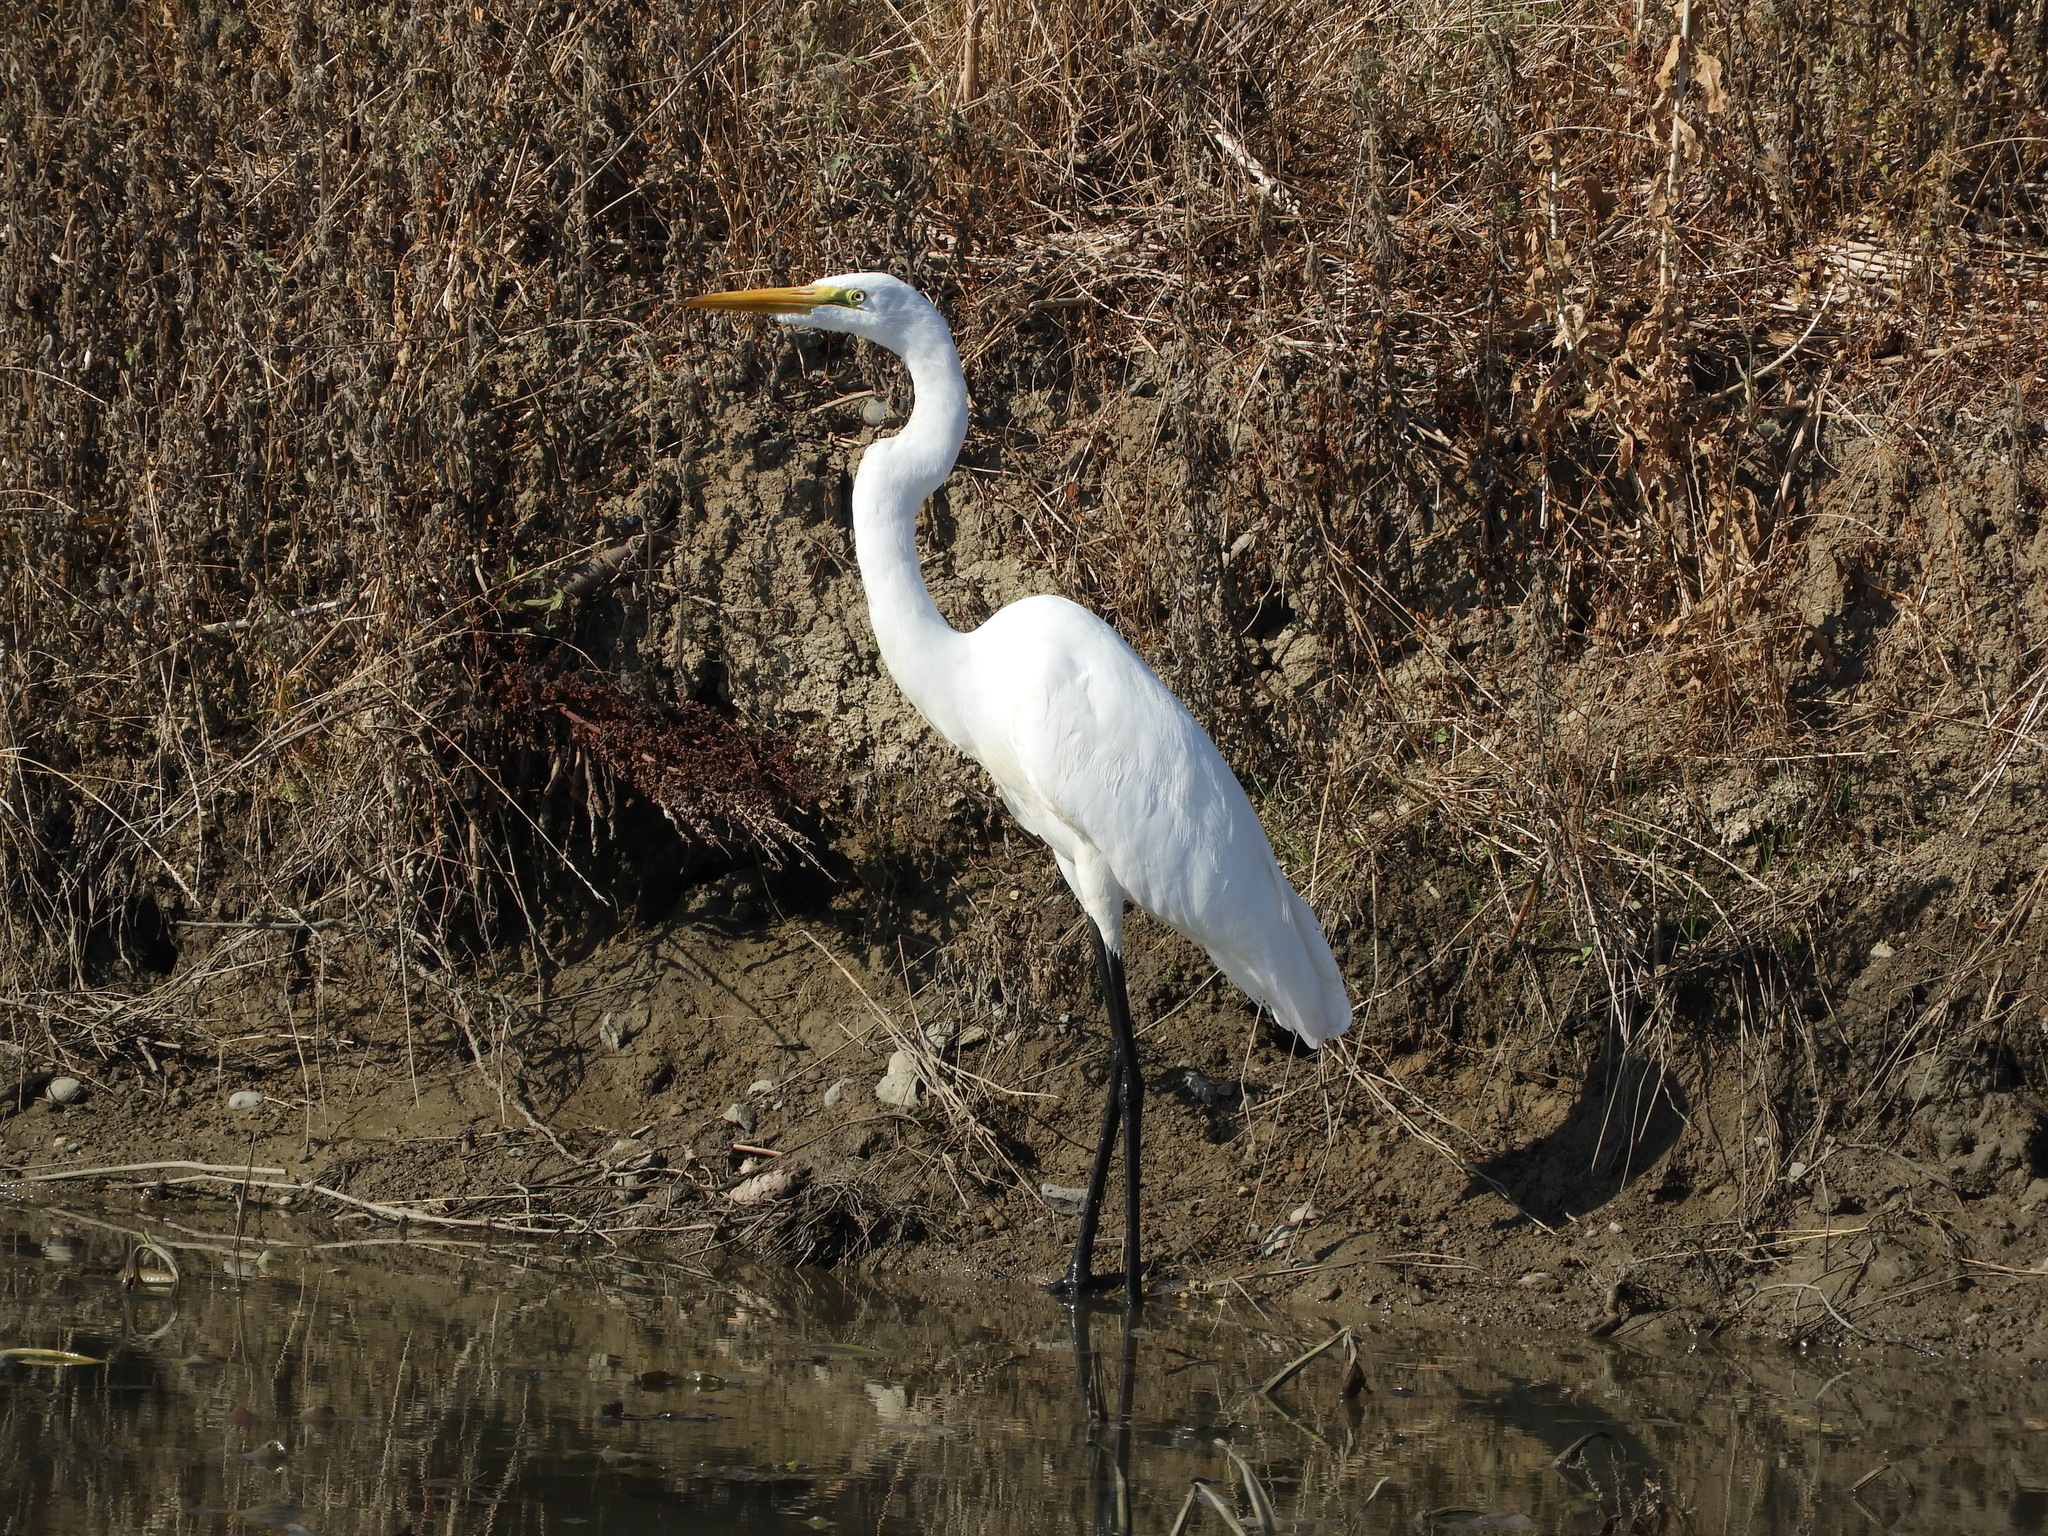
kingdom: Animalia
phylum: Chordata
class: Aves
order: Pelecaniformes
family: Ardeidae
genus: Ardea
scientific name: Ardea alba
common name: Great egret
